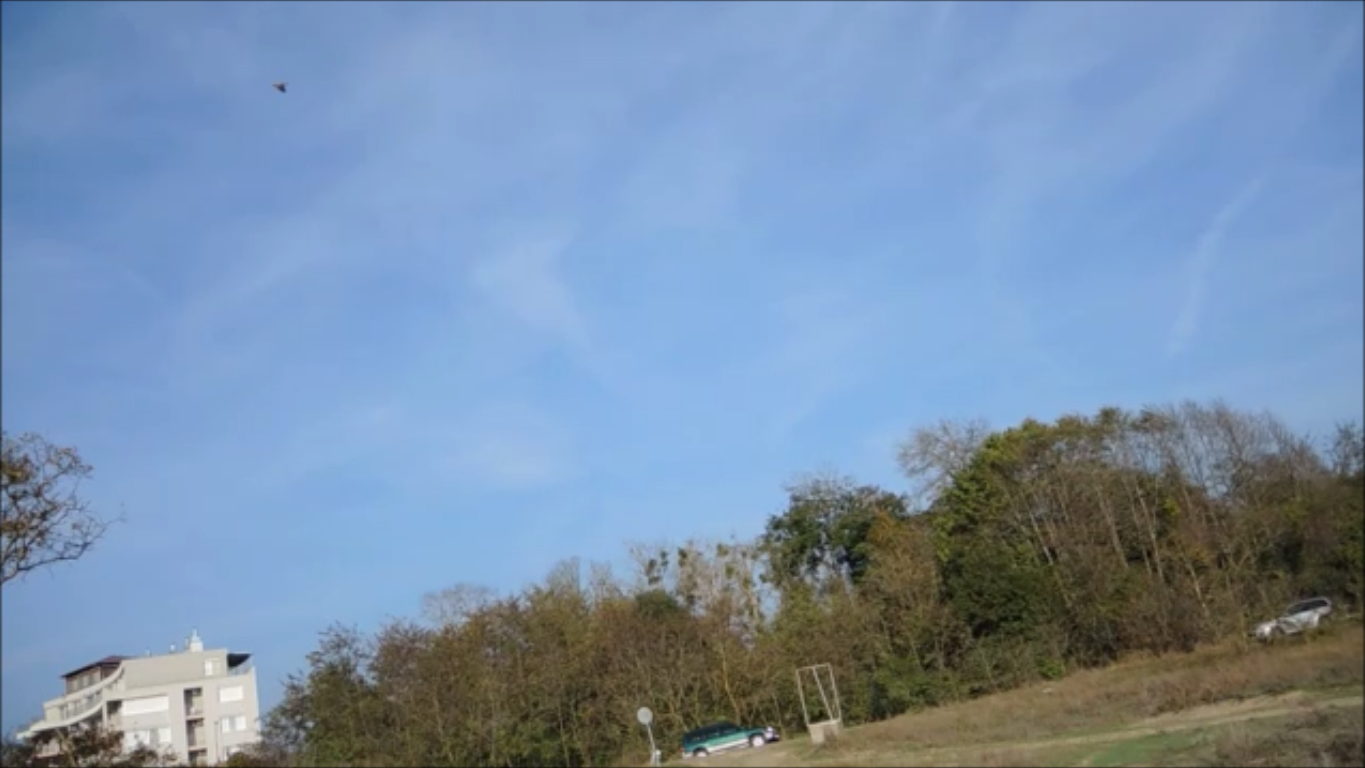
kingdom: Animalia
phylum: Chordata
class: Aves
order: Passeriformes
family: Alaudidae
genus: Galerida
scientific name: Galerida cristata
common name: Crested lark
